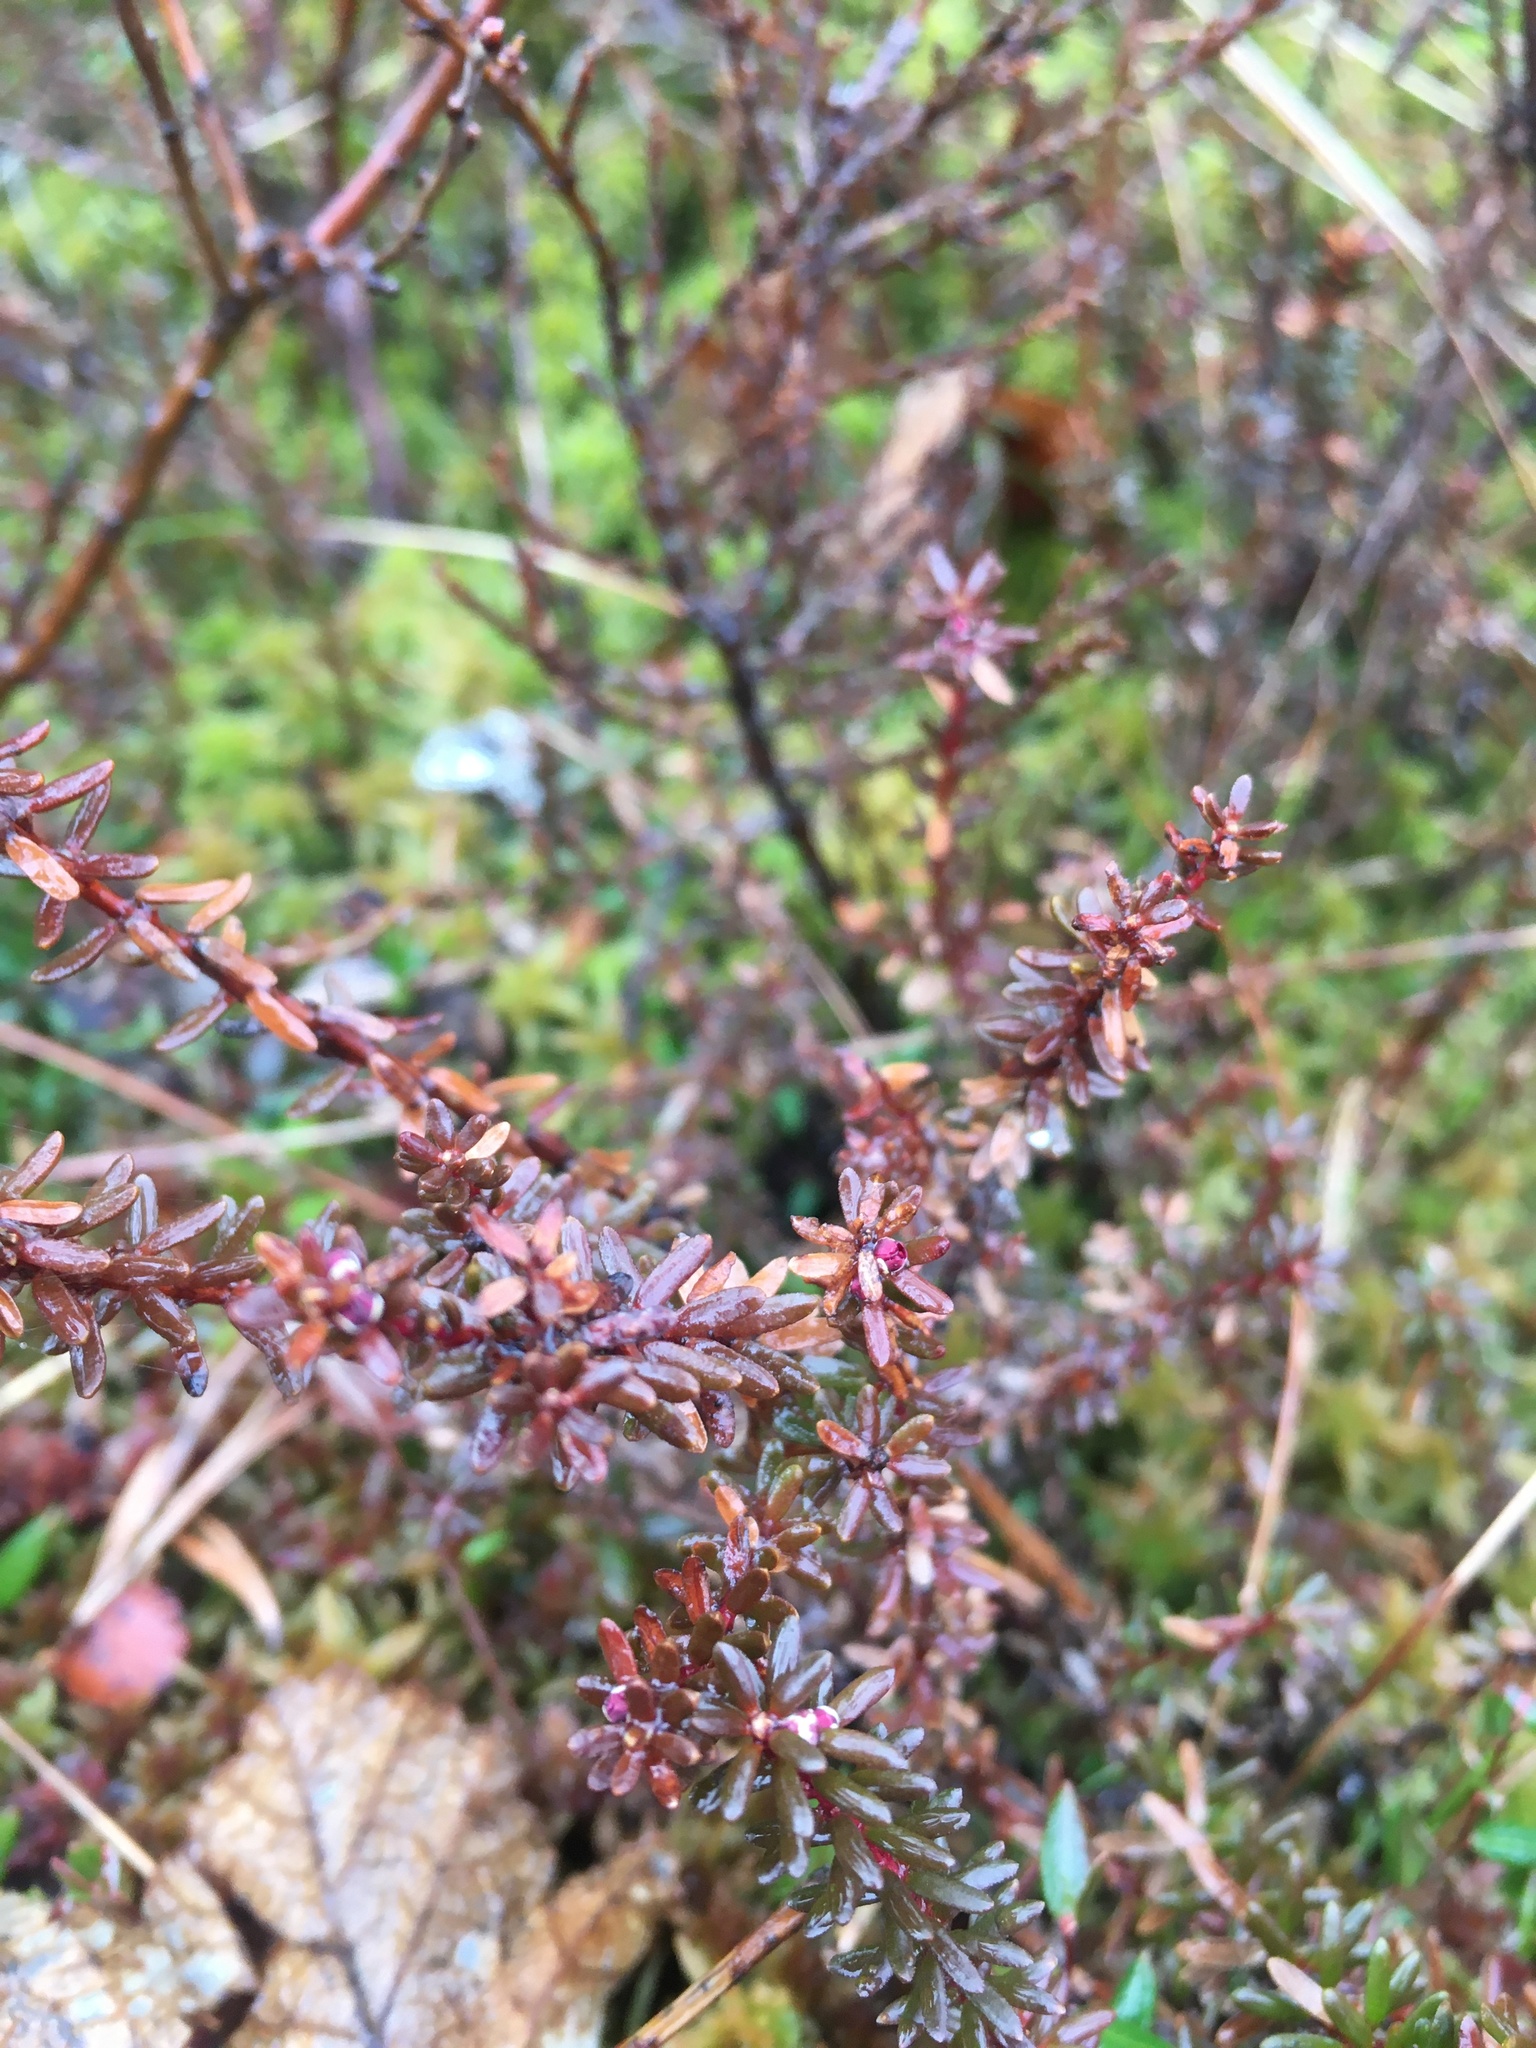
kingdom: Plantae
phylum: Tracheophyta
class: Magnoliopsida
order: Ericales
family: Ericaceae
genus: Empetrum
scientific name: Empetrum nigrum
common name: Black crowberry
